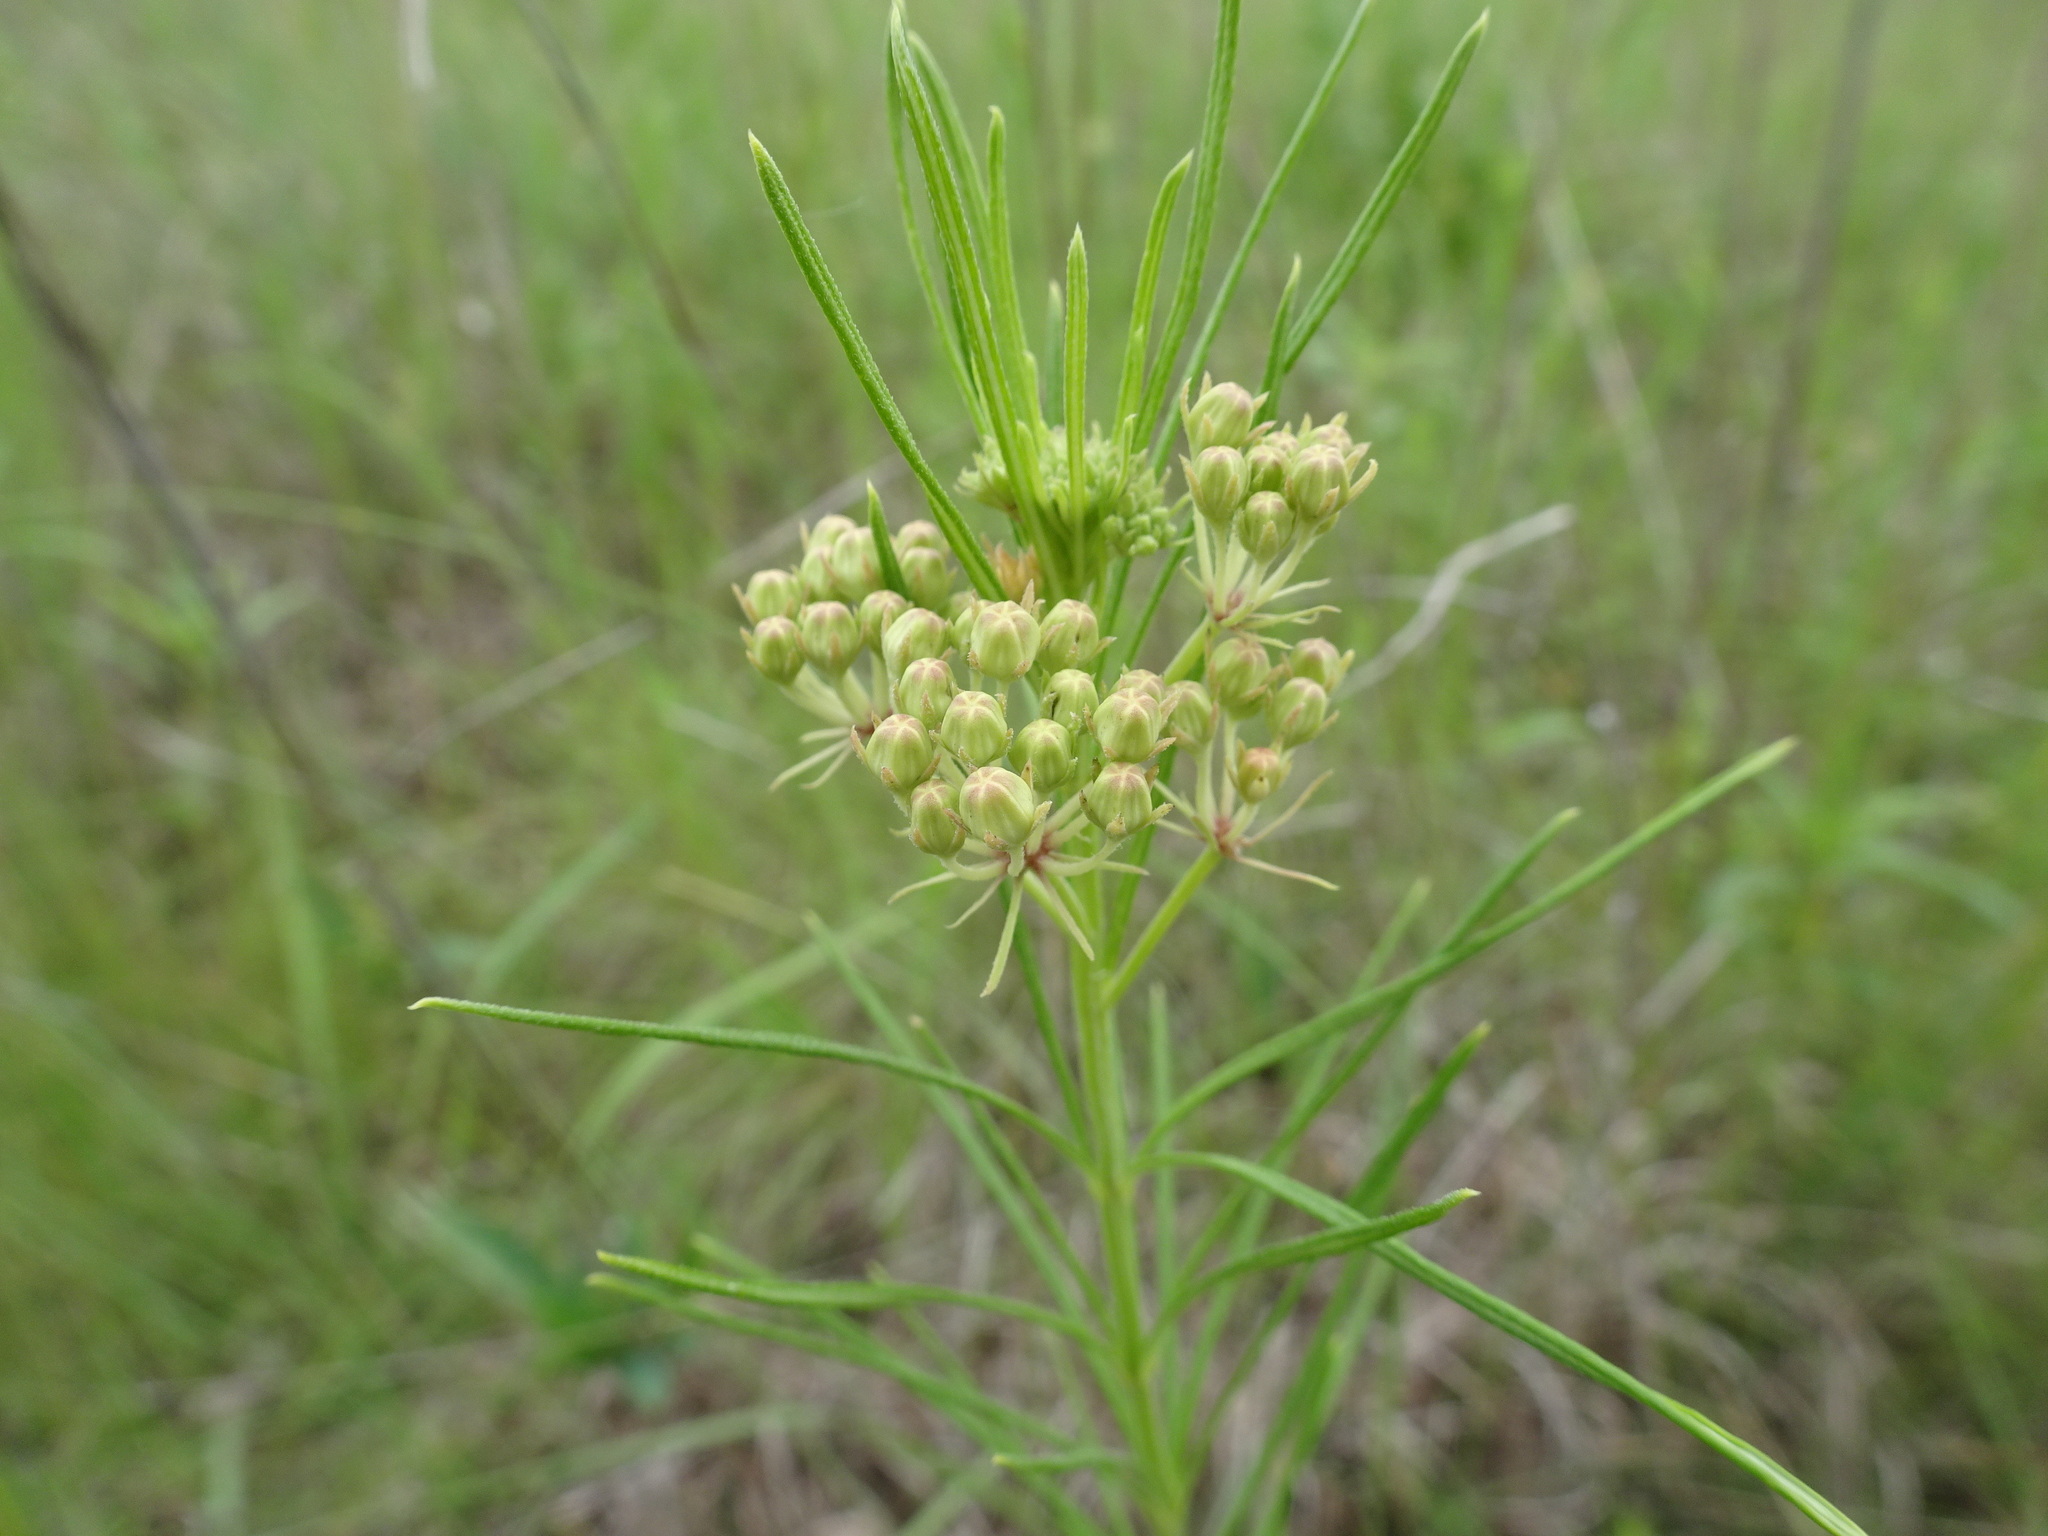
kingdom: Plantae
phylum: Tracheophyta
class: Magnoliopsida
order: Gentianales
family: Apocynaceae
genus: Asclepias
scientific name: Asclepias verticillata
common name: Eastern whorled milkweed
